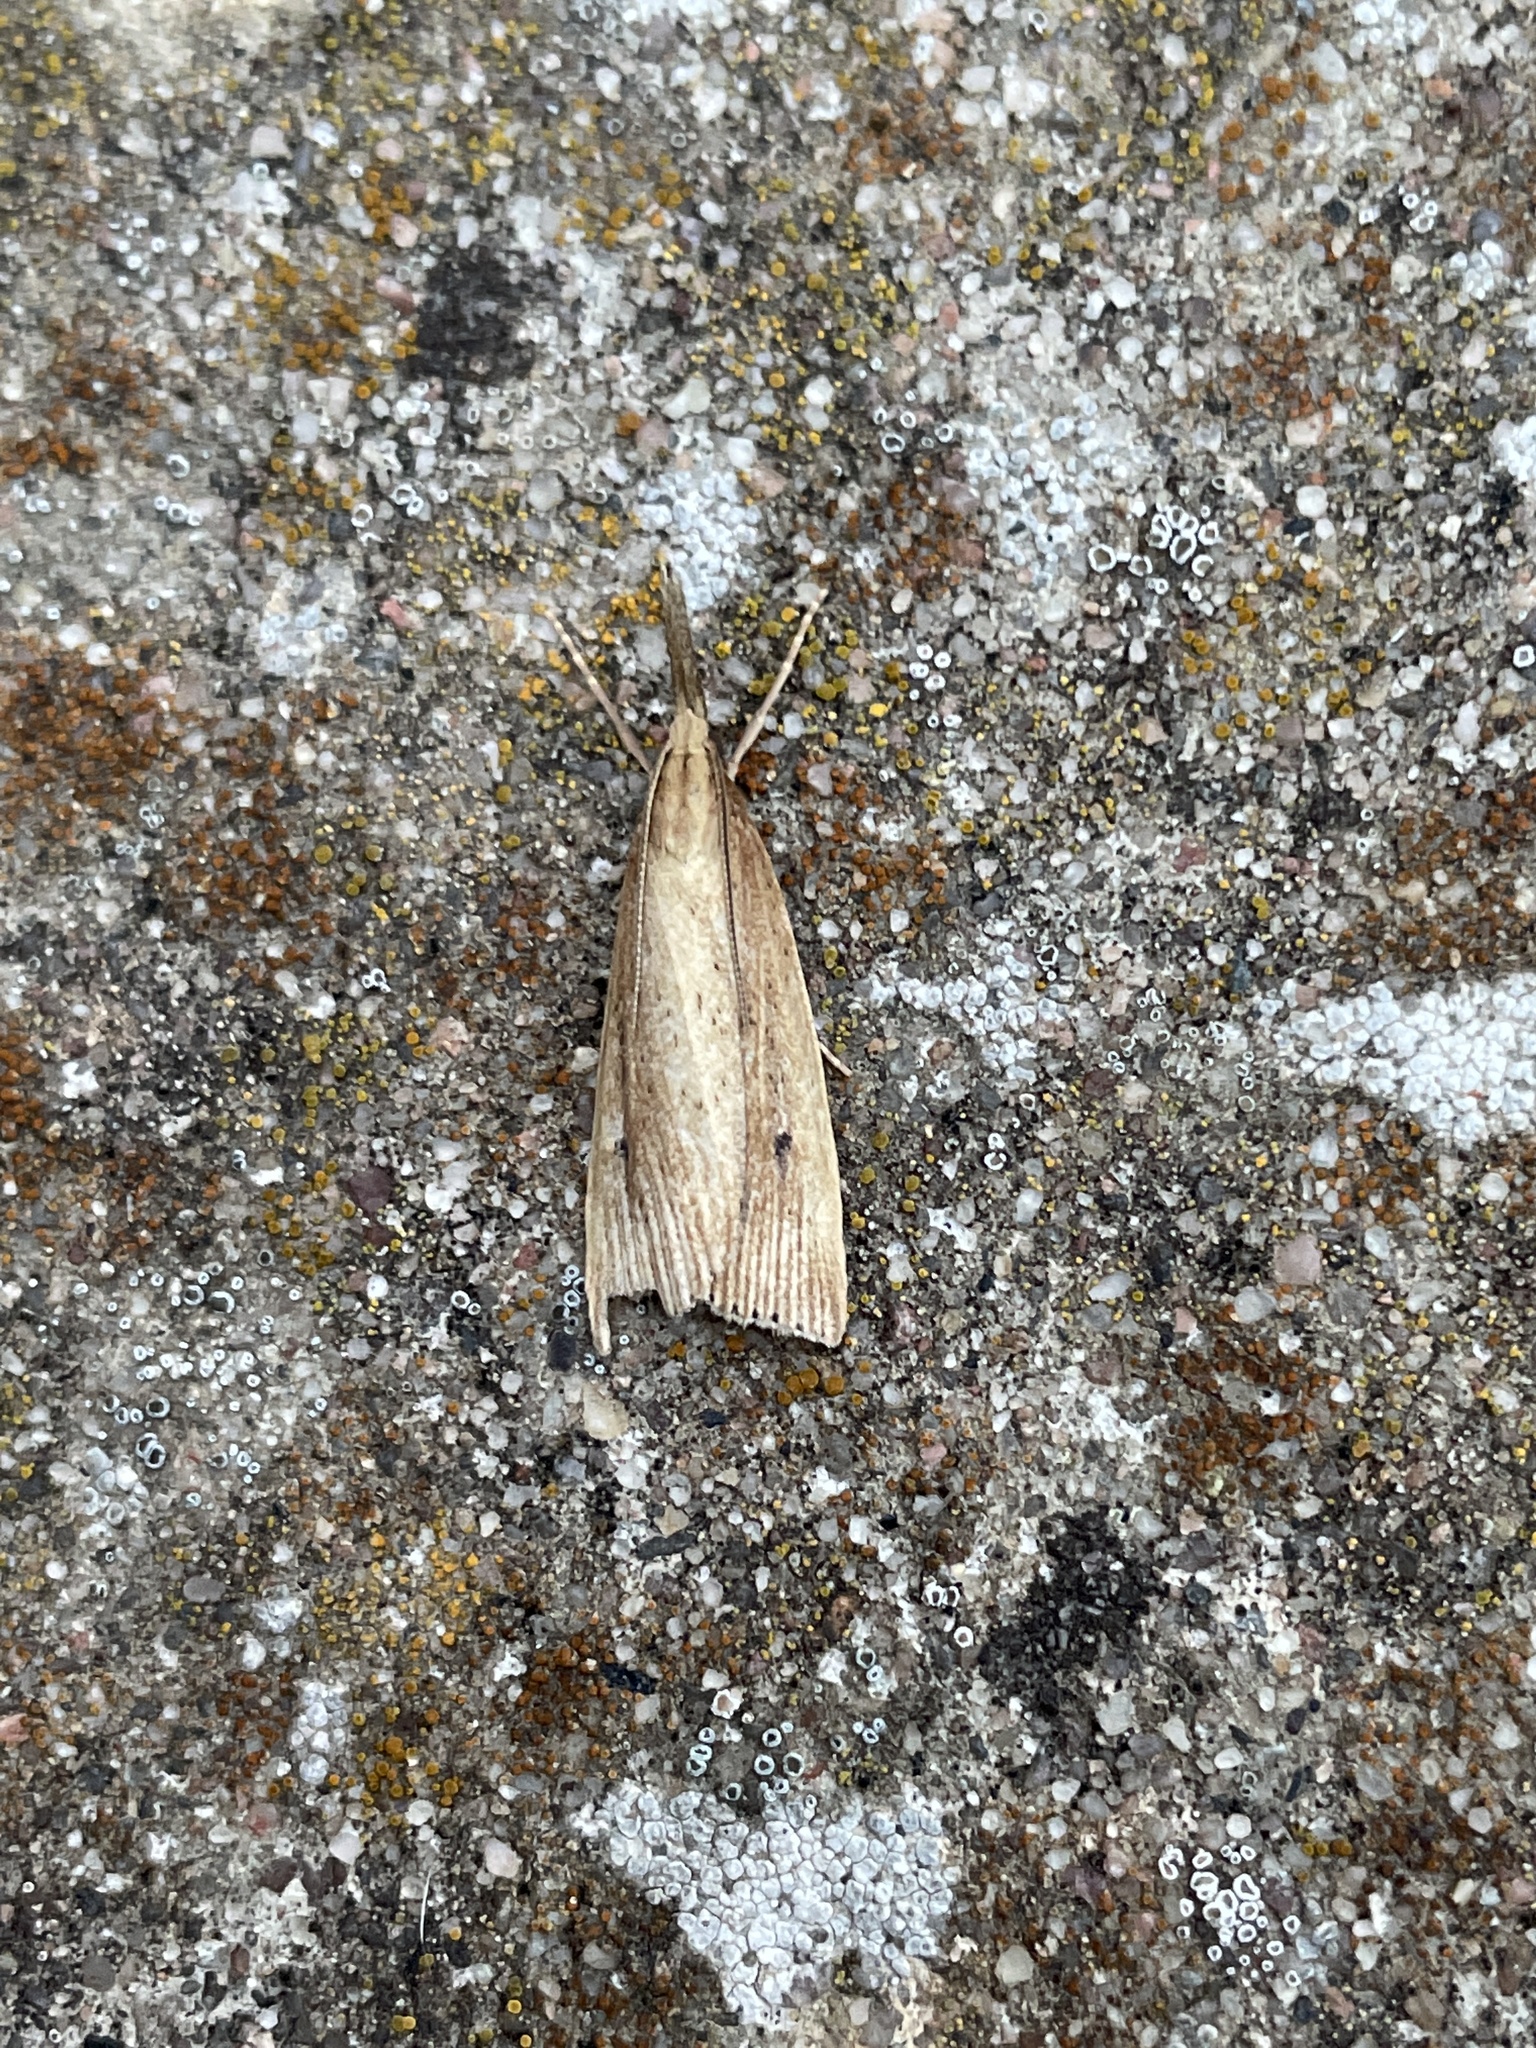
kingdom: Animalia
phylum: Arthropoda
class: Insecta
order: Lepidoptera
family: Crambidae
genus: Chilo
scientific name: Chilo phragmitella
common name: Reed veneer
